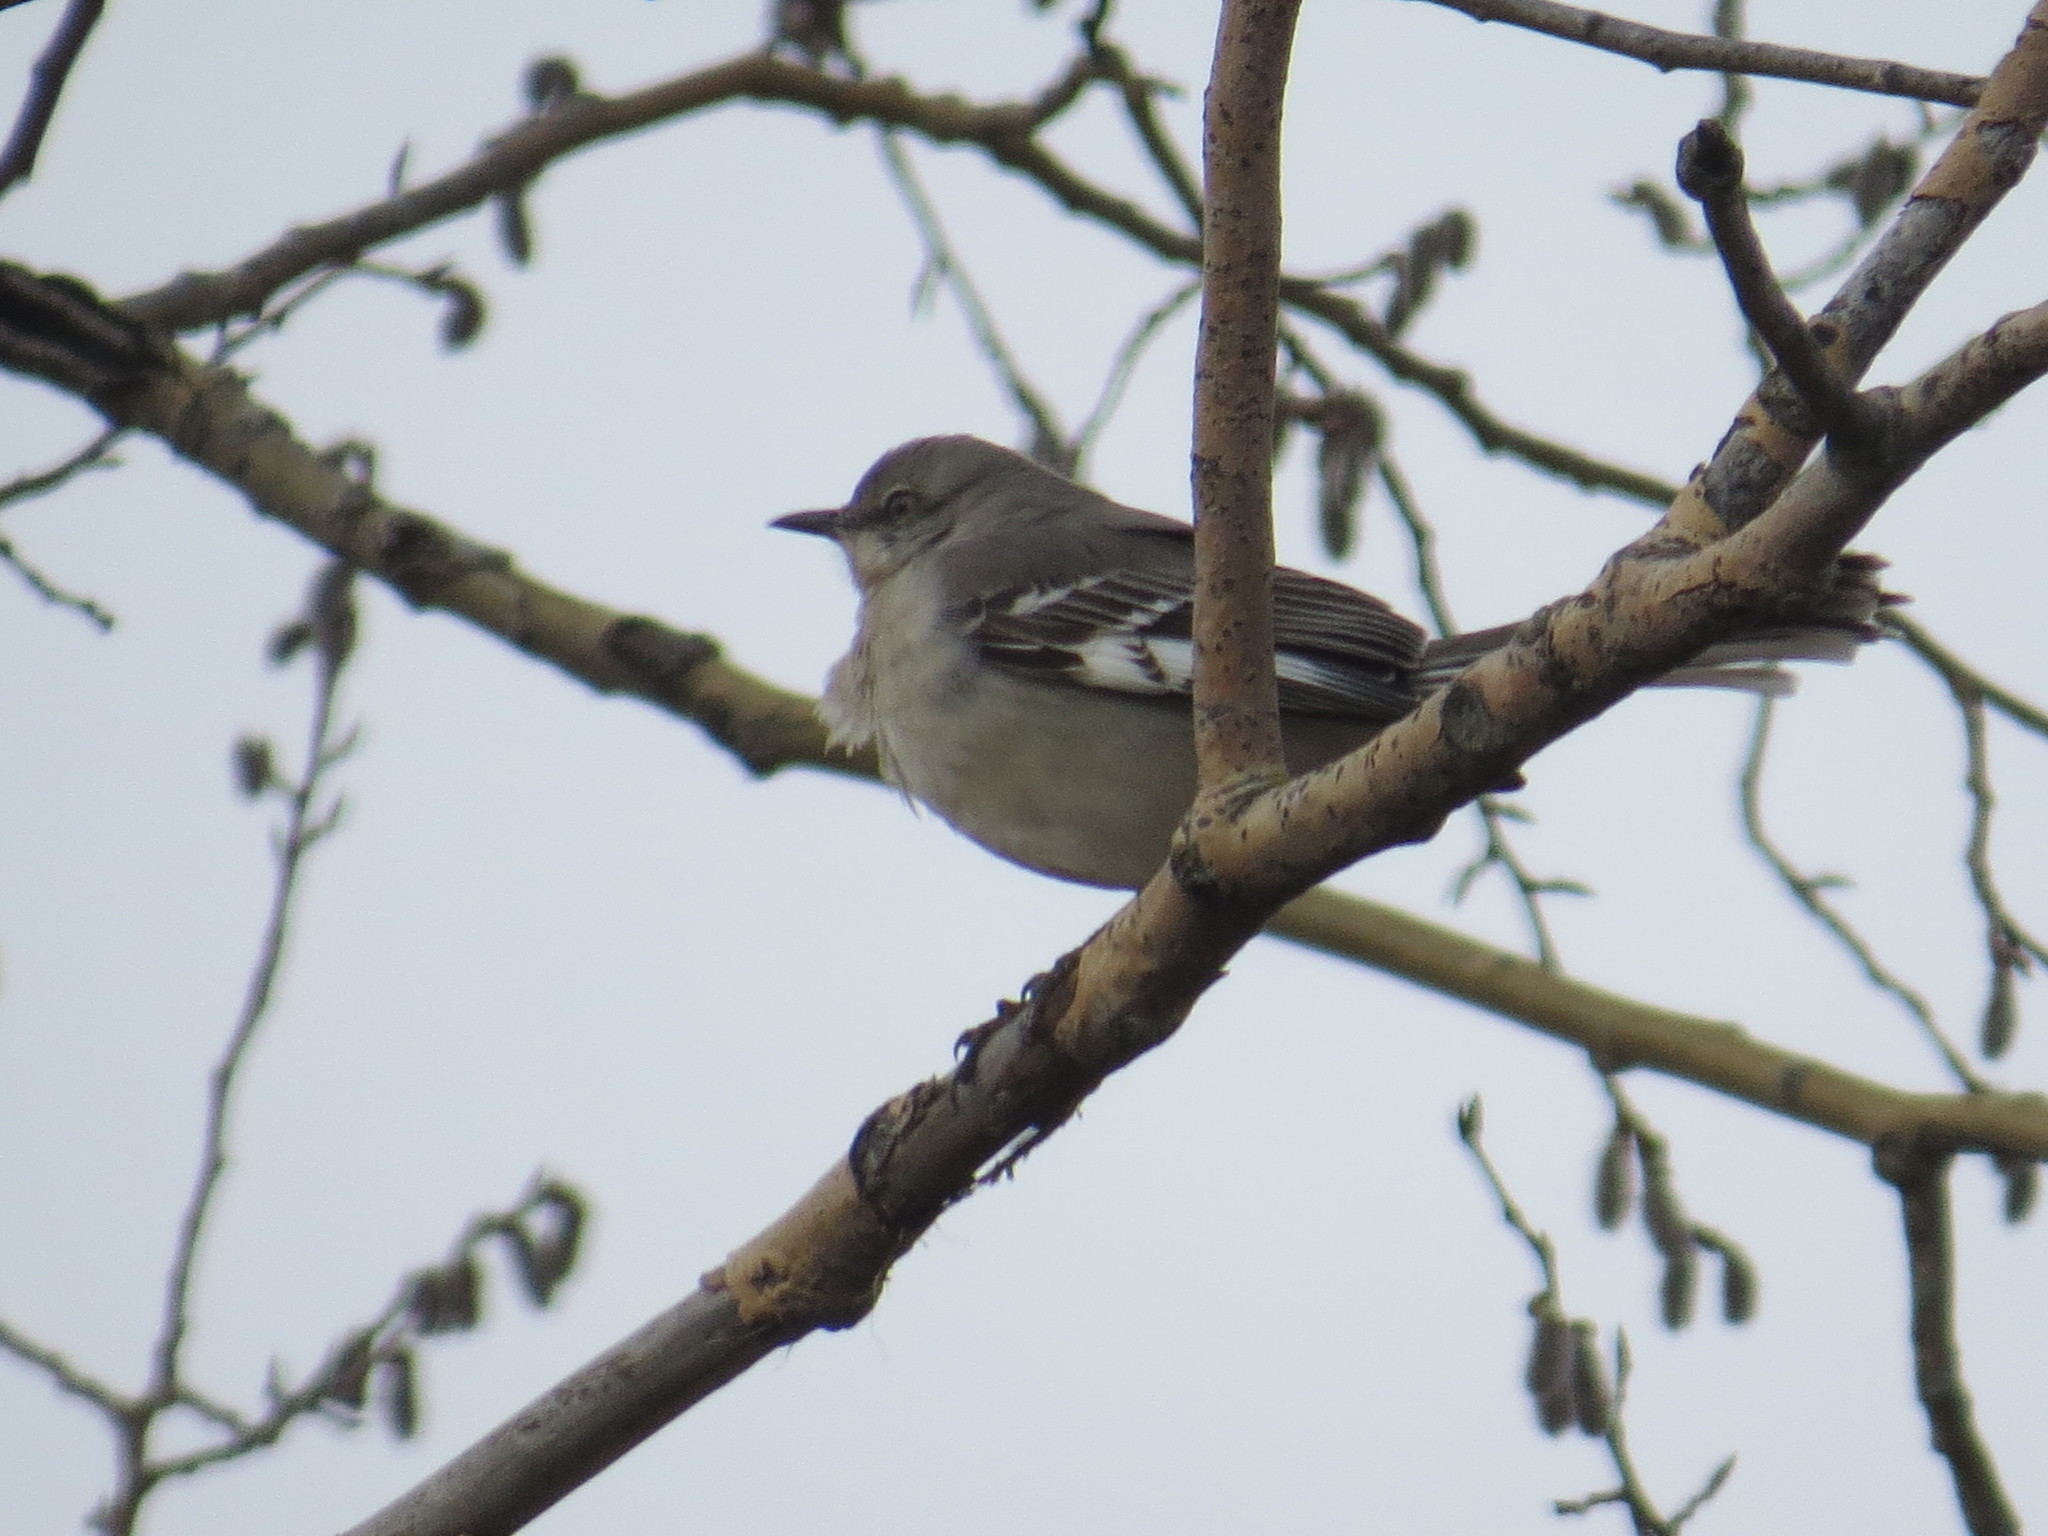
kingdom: Animalia
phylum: Chordata
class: Aves
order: Passeriformes
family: Mimidae
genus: Mimus
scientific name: Mimus polyglottos
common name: Northern mockingbird
